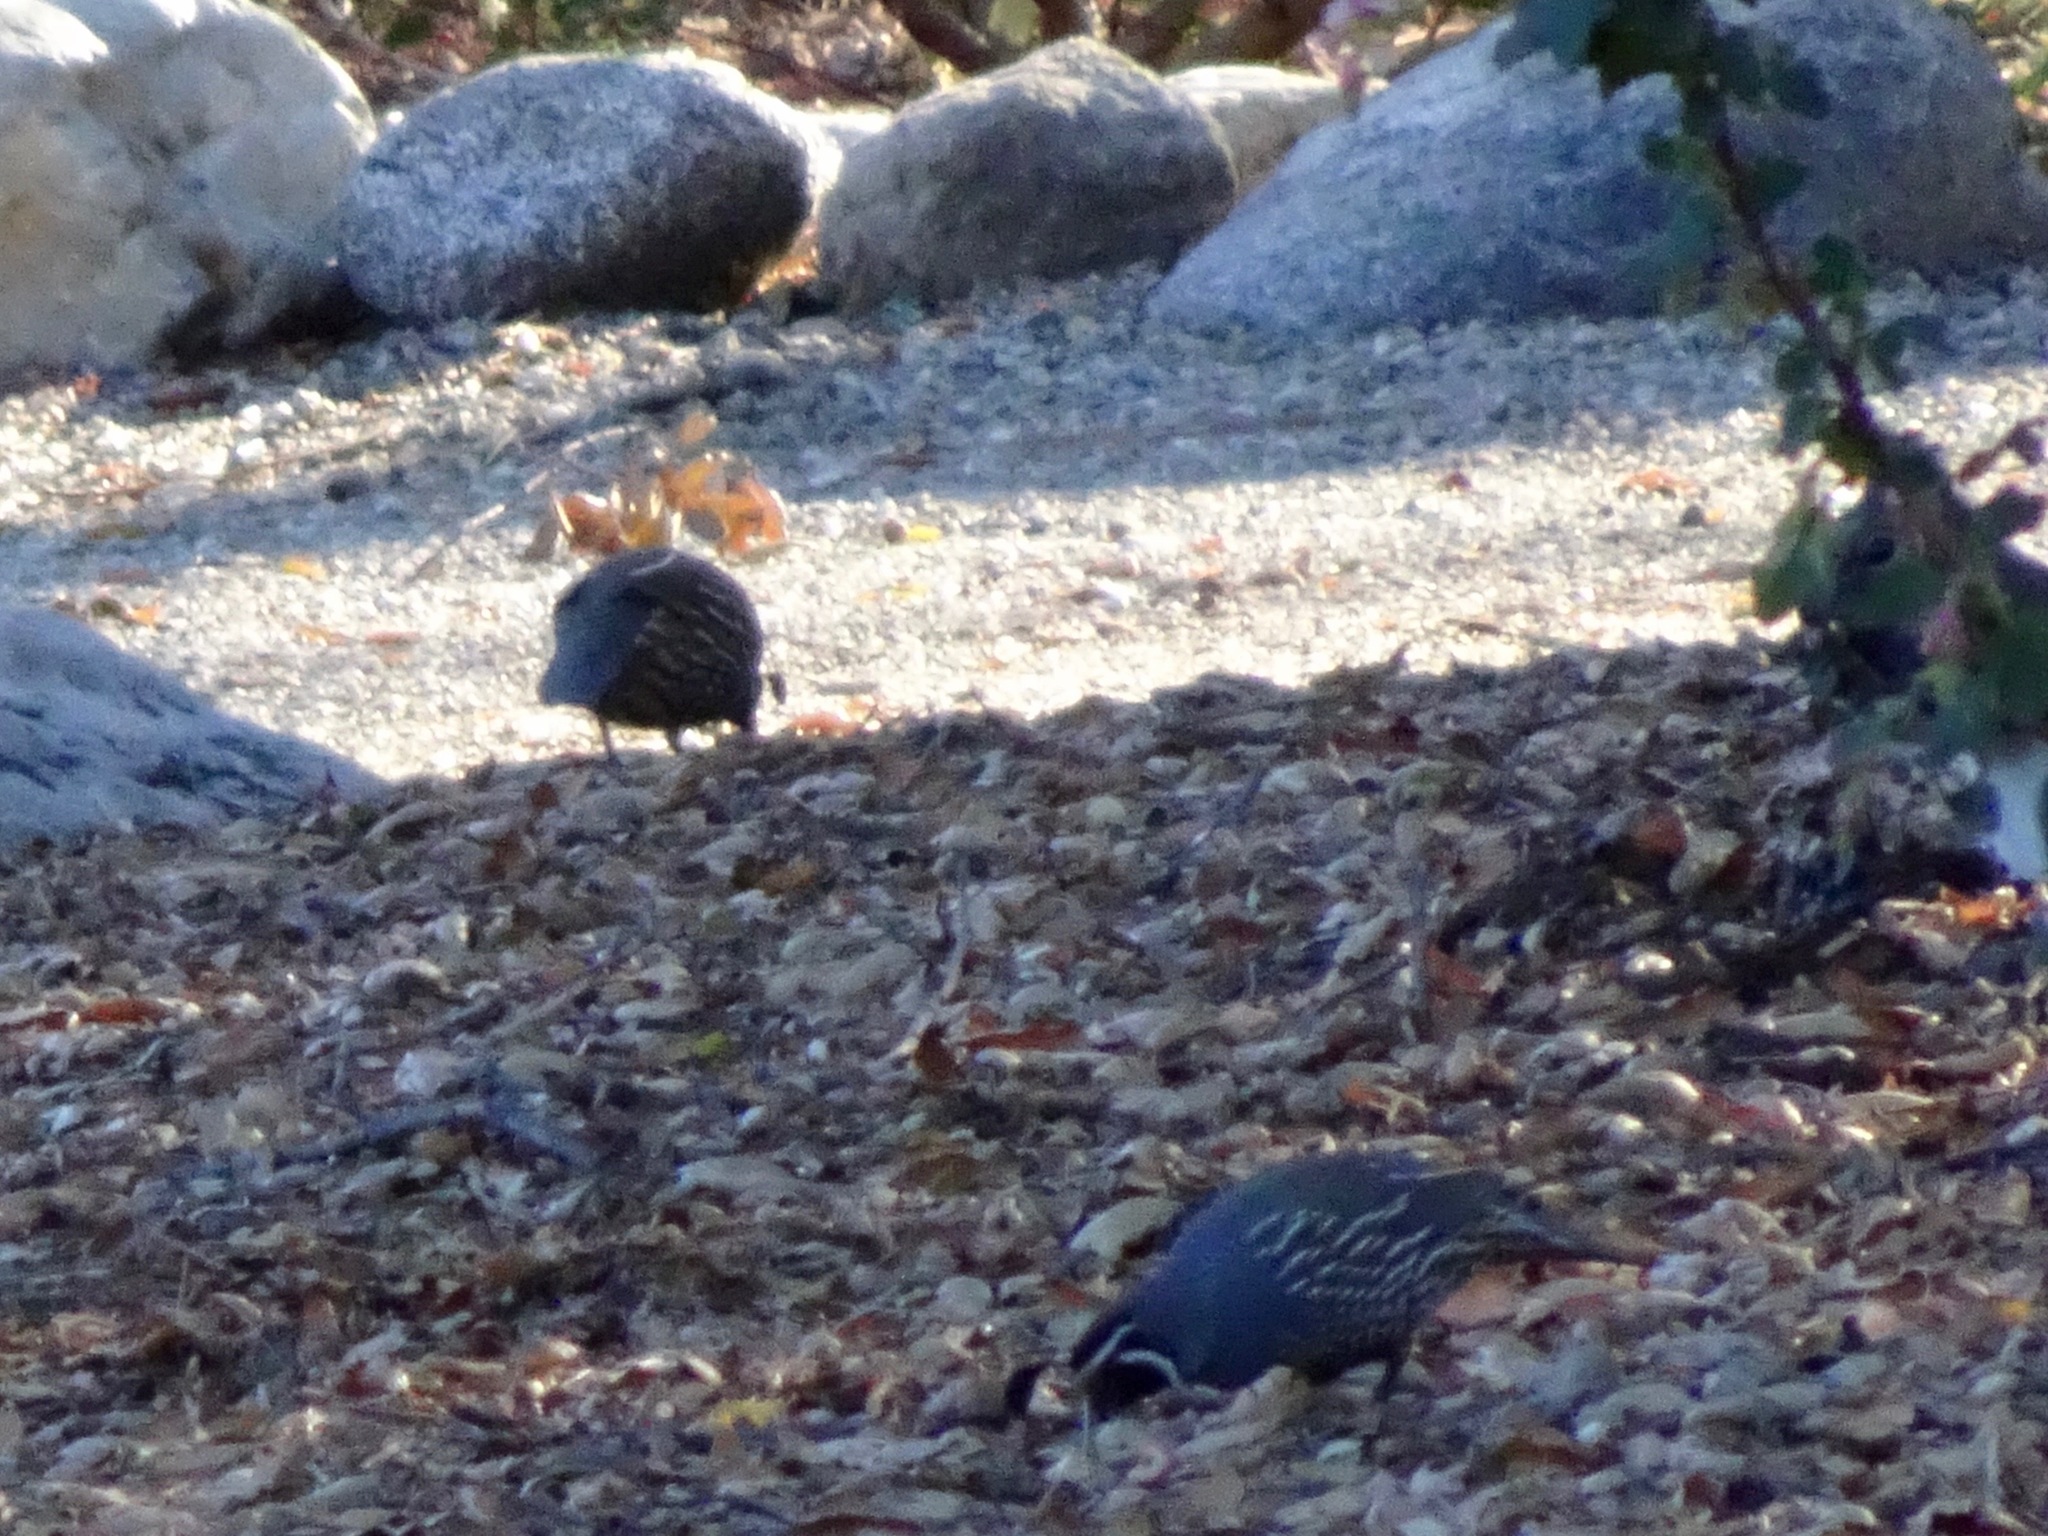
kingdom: Animalia
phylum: Chordata
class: Aves
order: Galliformes
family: Odontophoridae
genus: Callipepla
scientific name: Callipepla californica
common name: California quail
